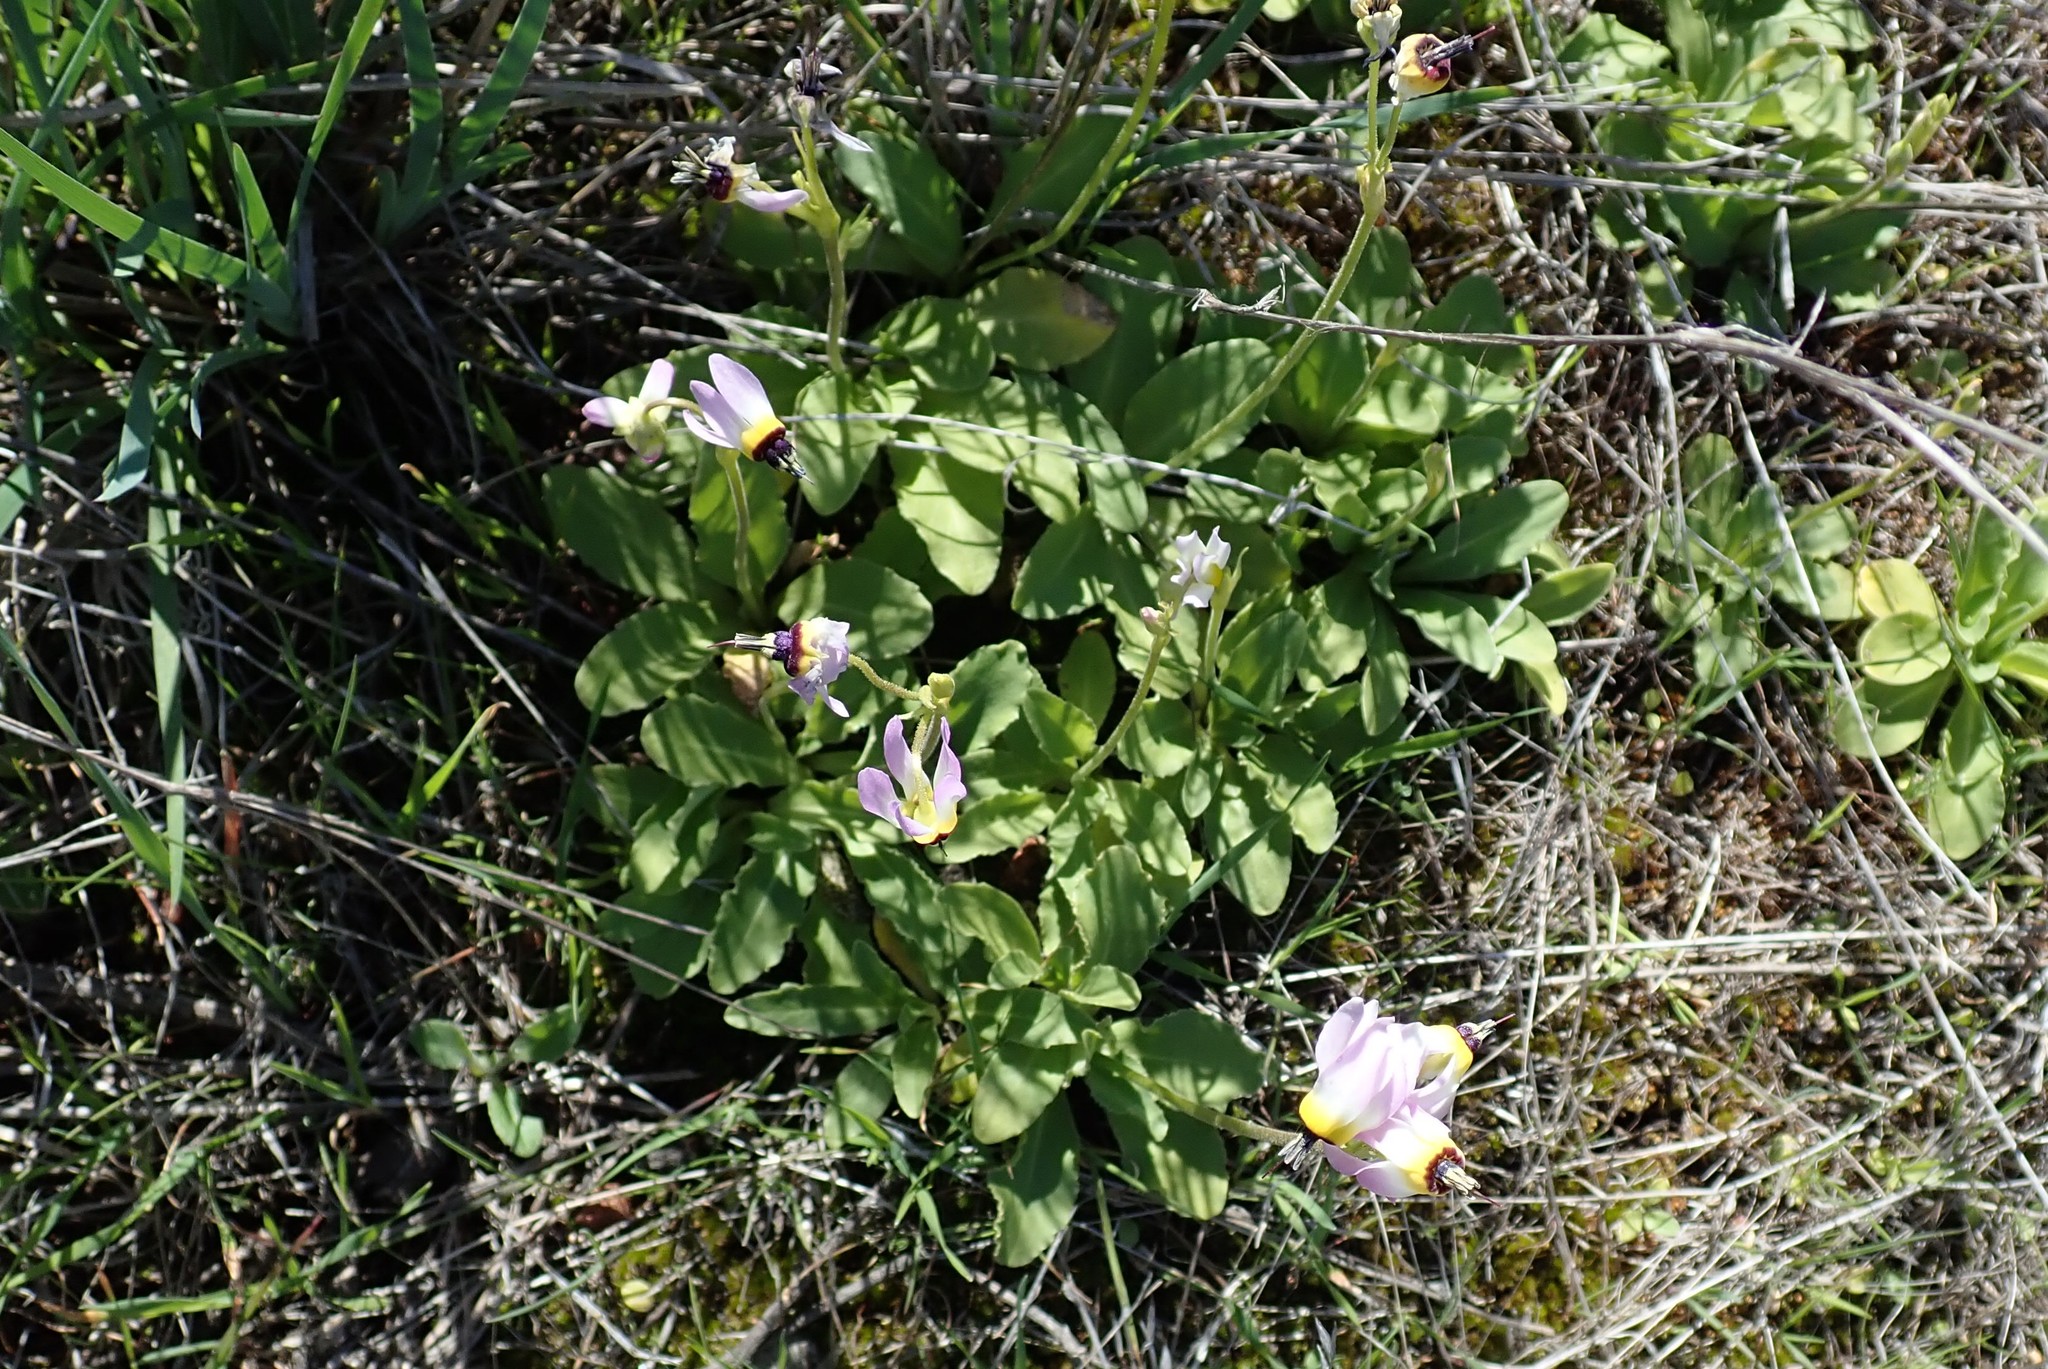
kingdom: Plantae
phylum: Tracheophyta
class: Magnoliopsida
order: Ericales
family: Primulaceae
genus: Dodecatheon
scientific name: Dodecatheon clevelandii
